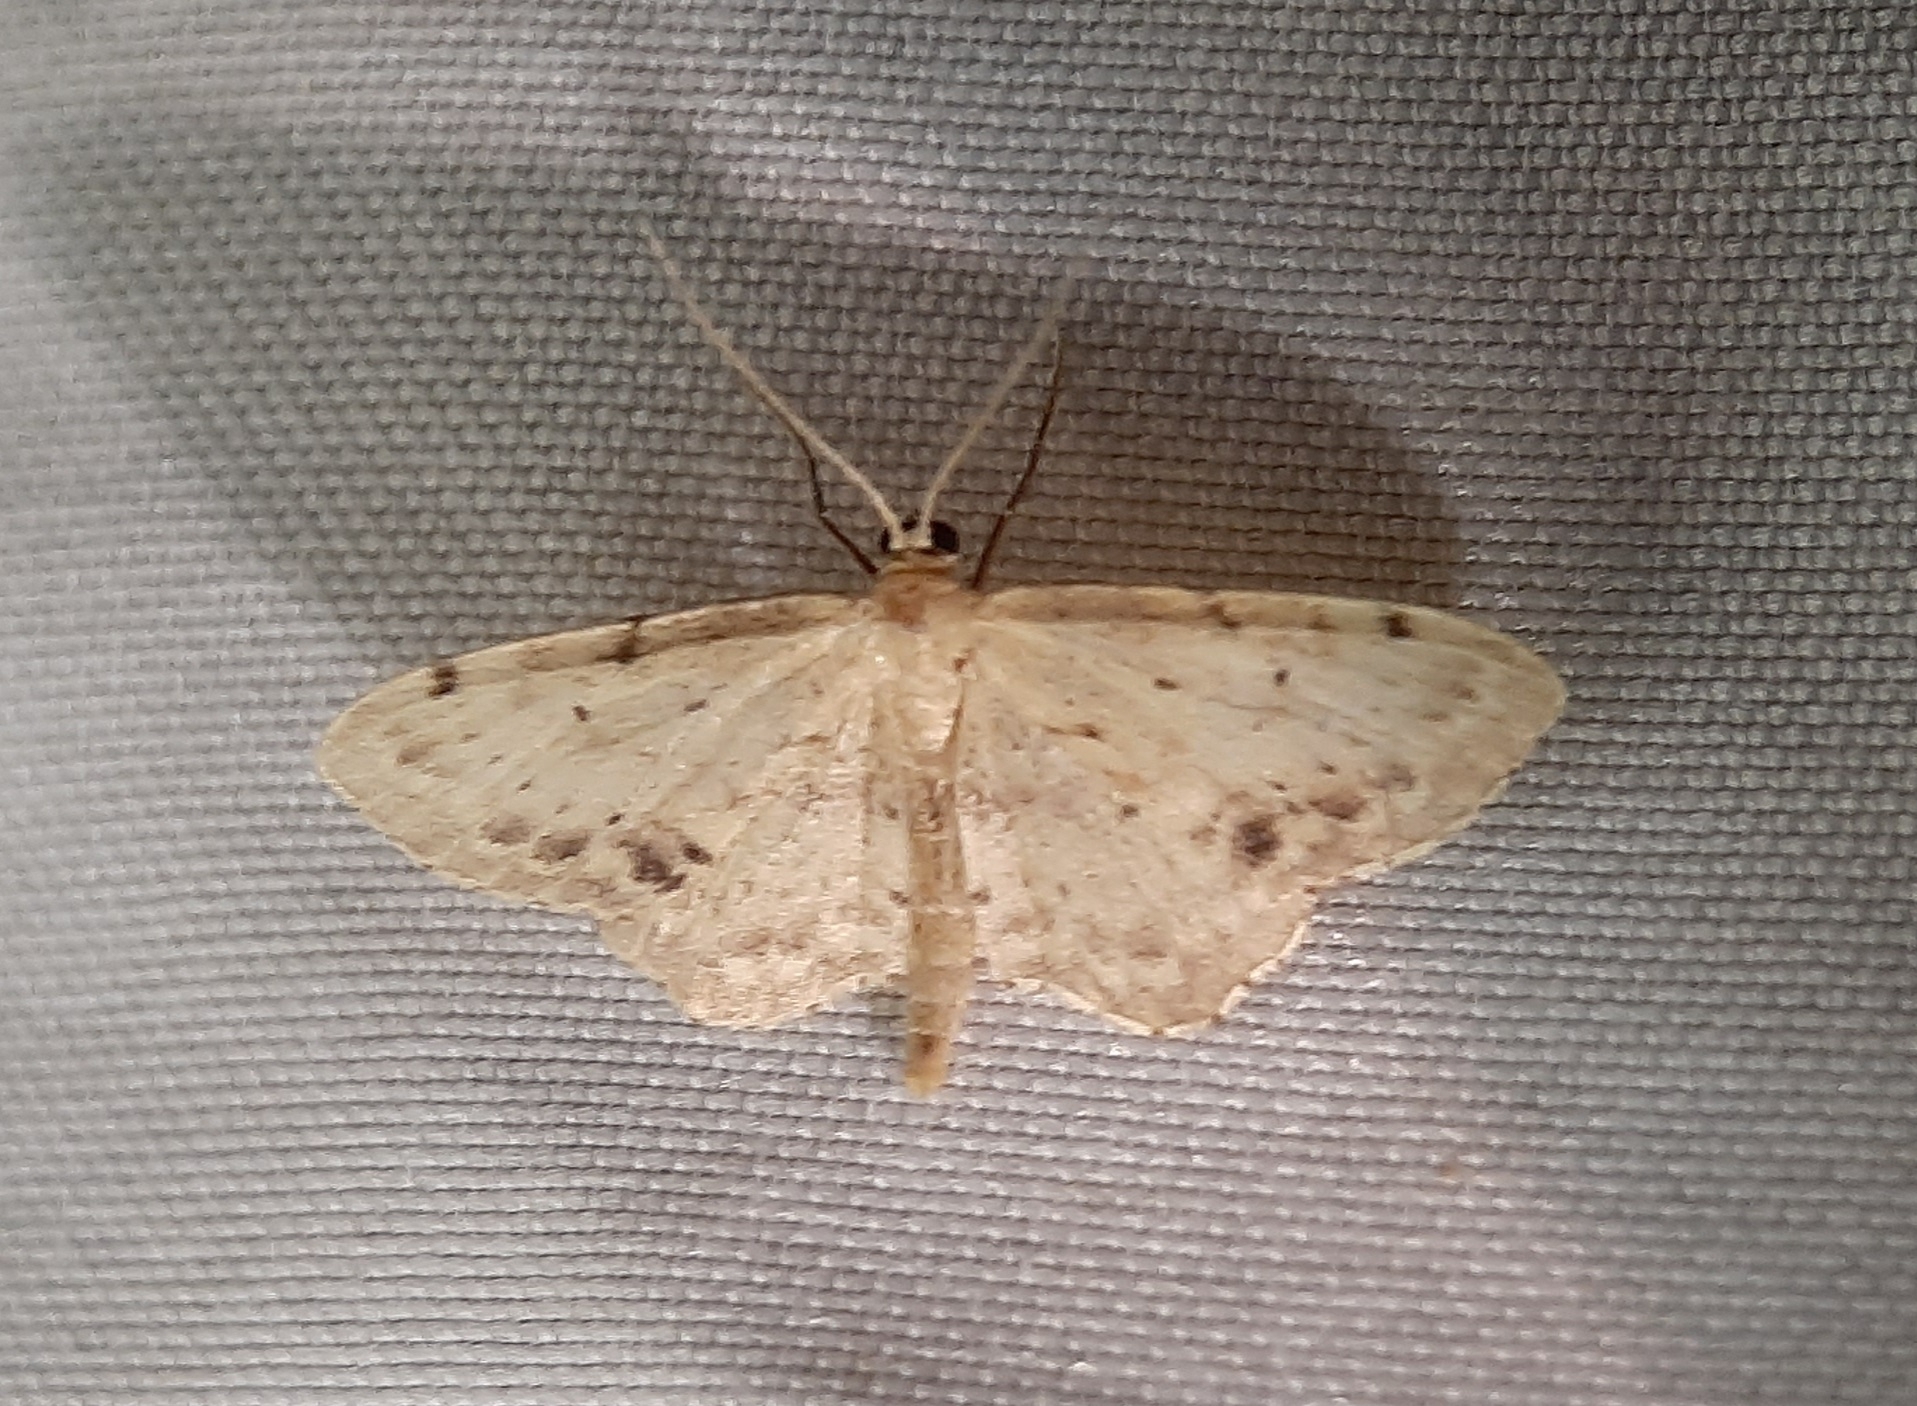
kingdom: Animalia
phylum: Arthropoda
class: Insecta
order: Lepidoptera
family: Geometridae
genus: Idaea
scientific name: Idaea dimidiata
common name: Single-dotted wave
